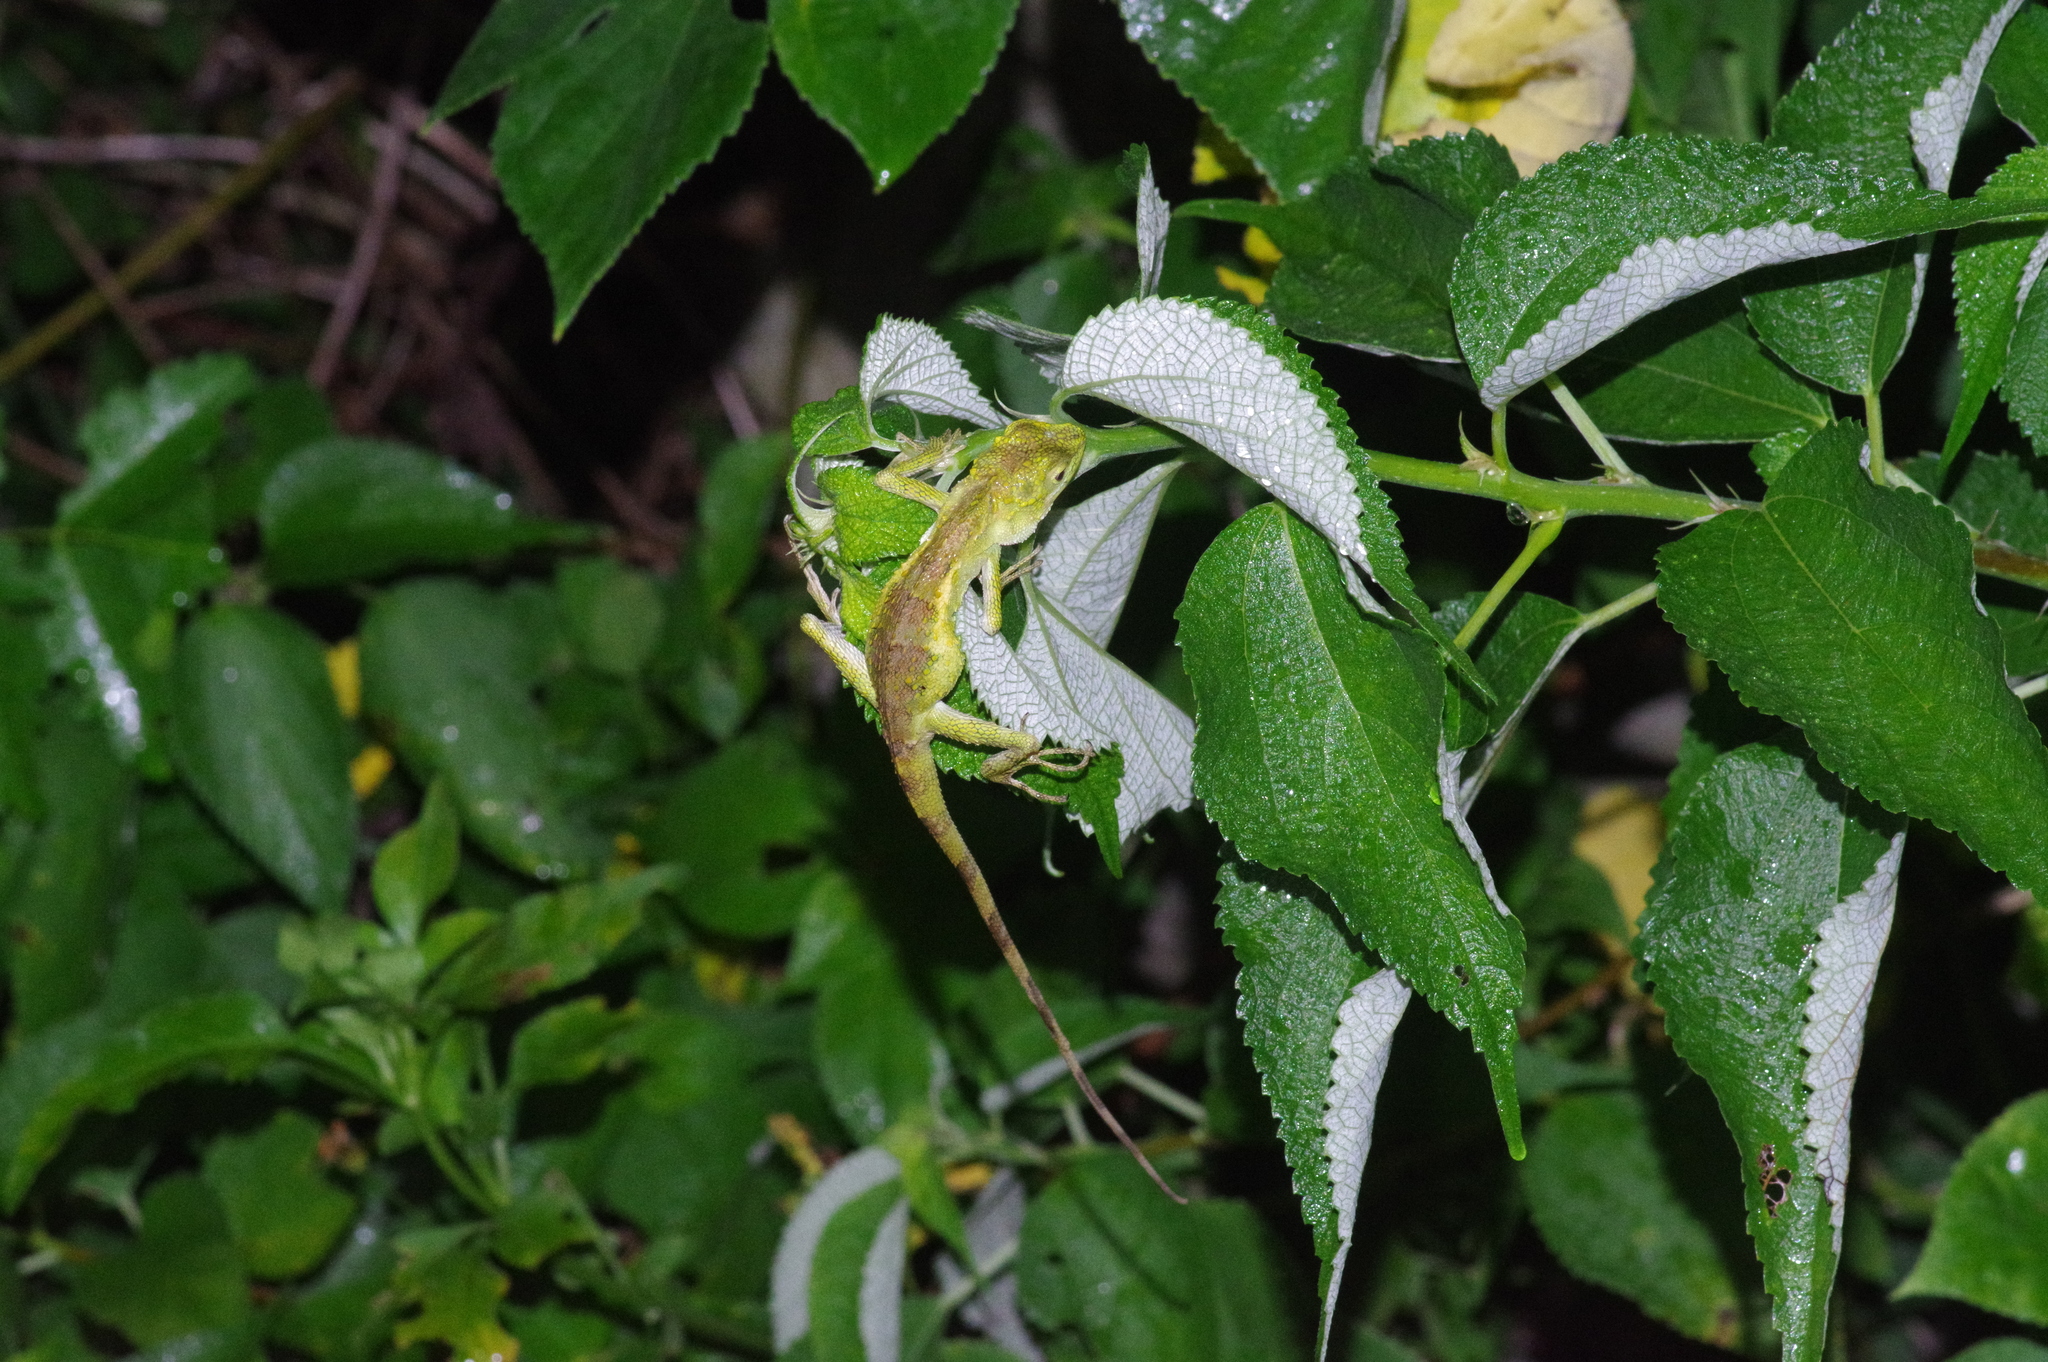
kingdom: Fungi
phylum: Basidiomycota
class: Agaricomycetes
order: Boletales
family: Diplocystidiaceae
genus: Diploderma
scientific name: Diploderma polygonatum
